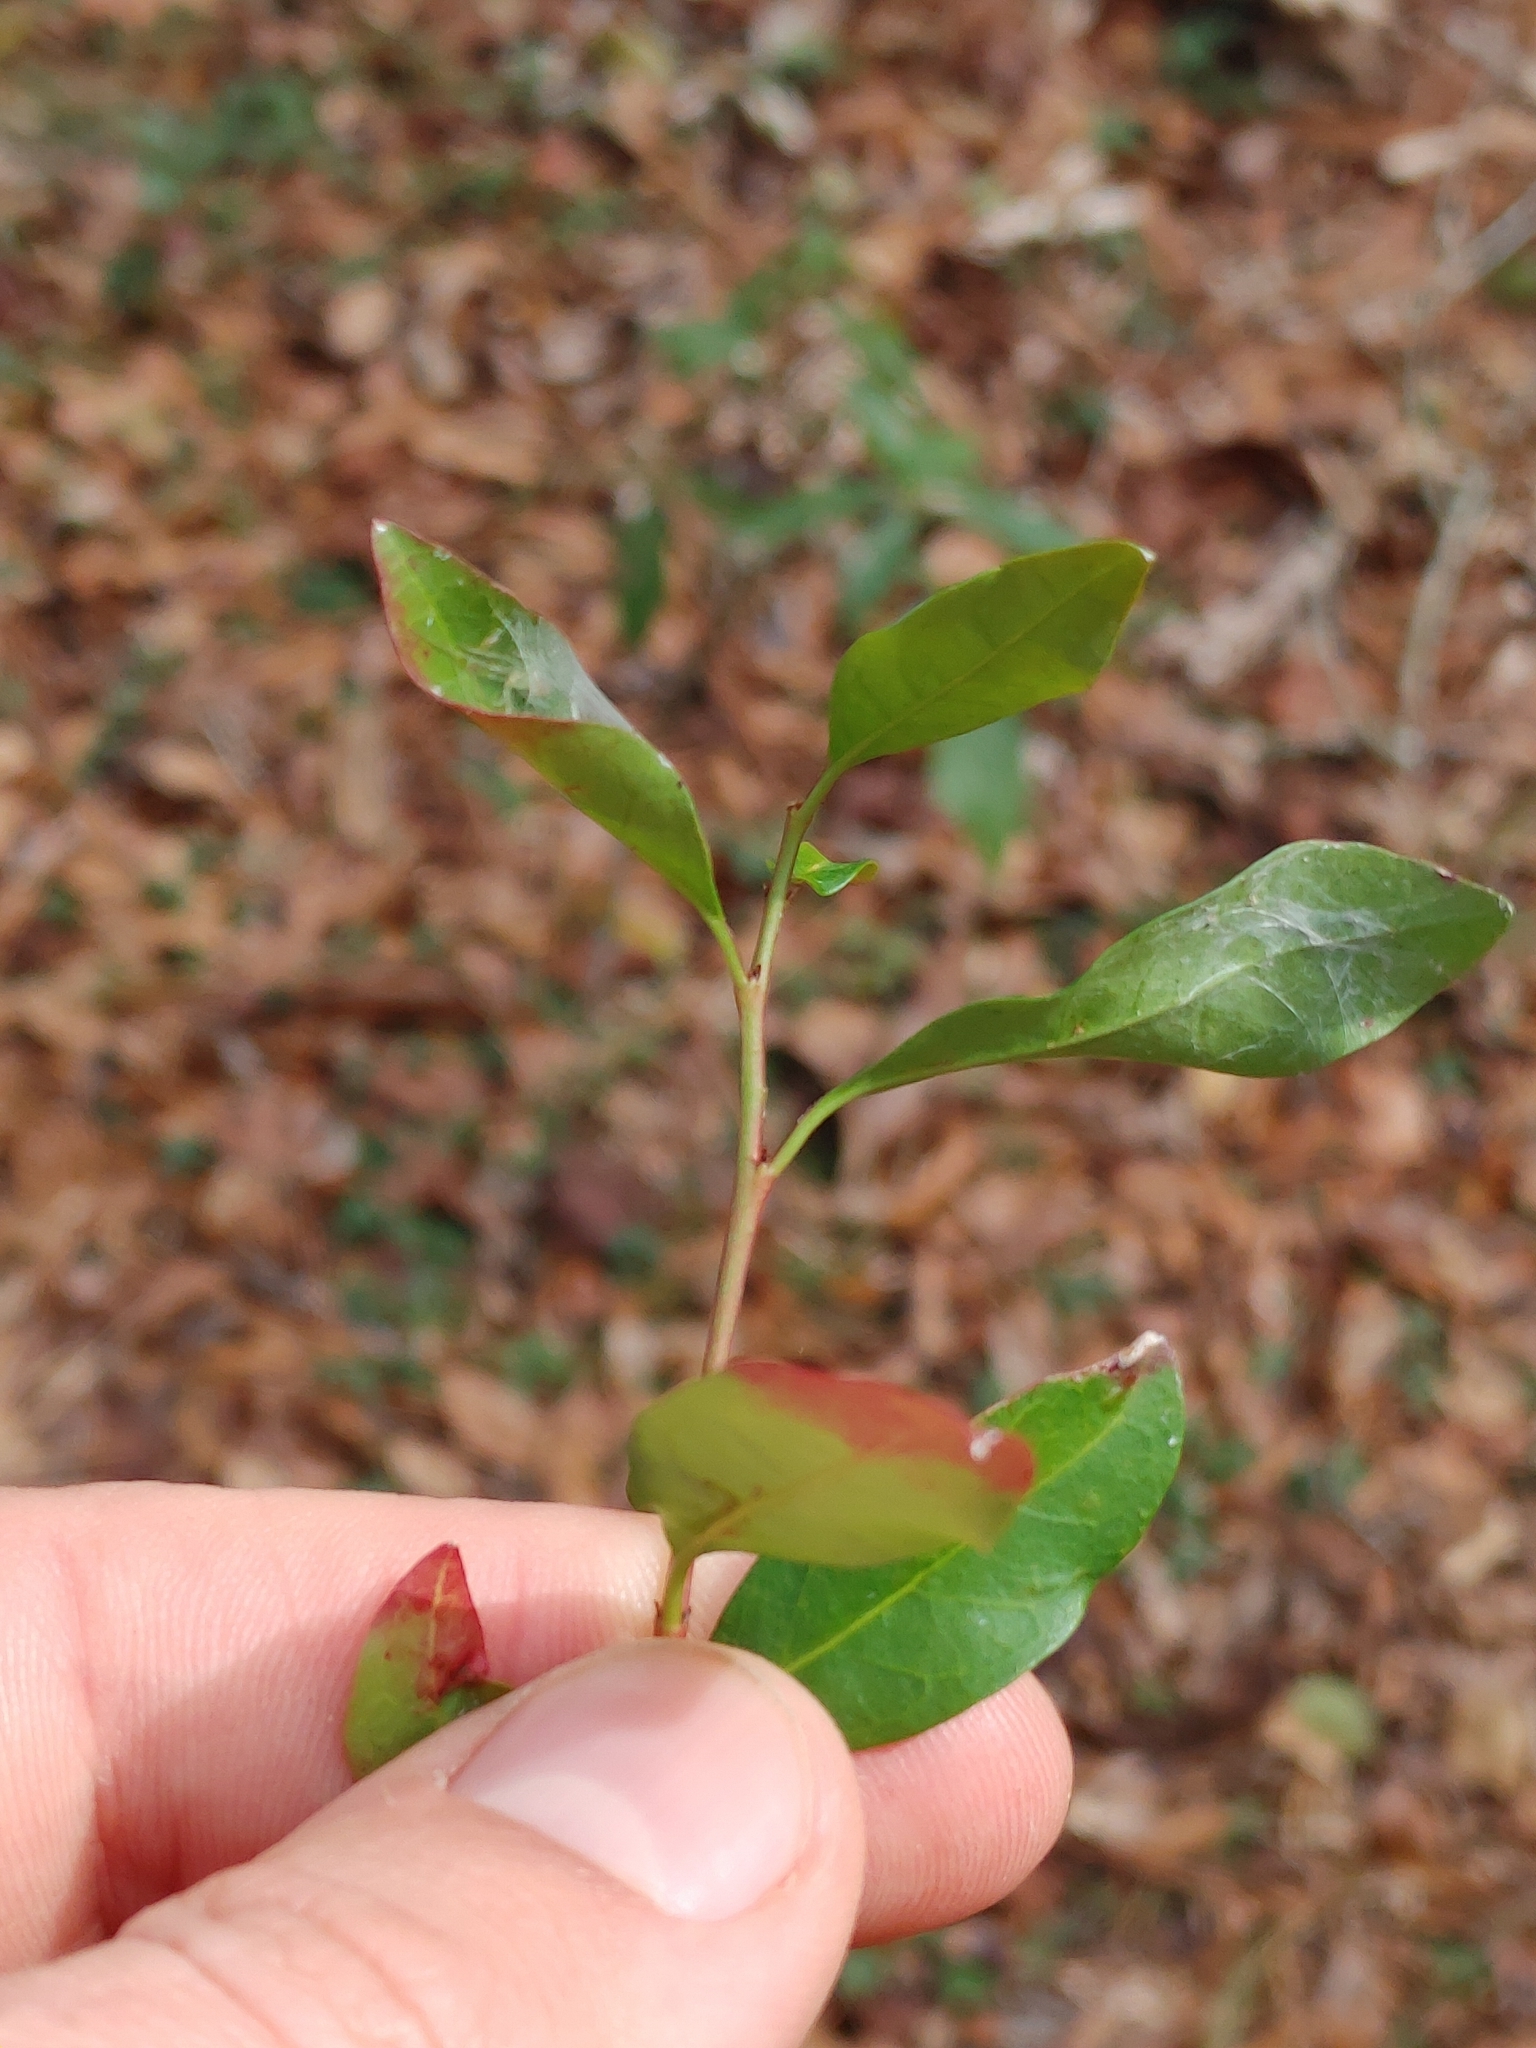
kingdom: Plantae
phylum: Tracheophyta
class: Magnoliopsida
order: Malpighiales
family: Euphorbiaceae
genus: Ditrysinia
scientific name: Ditrysinia fruticosa
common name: Gulf sebastian-bush
